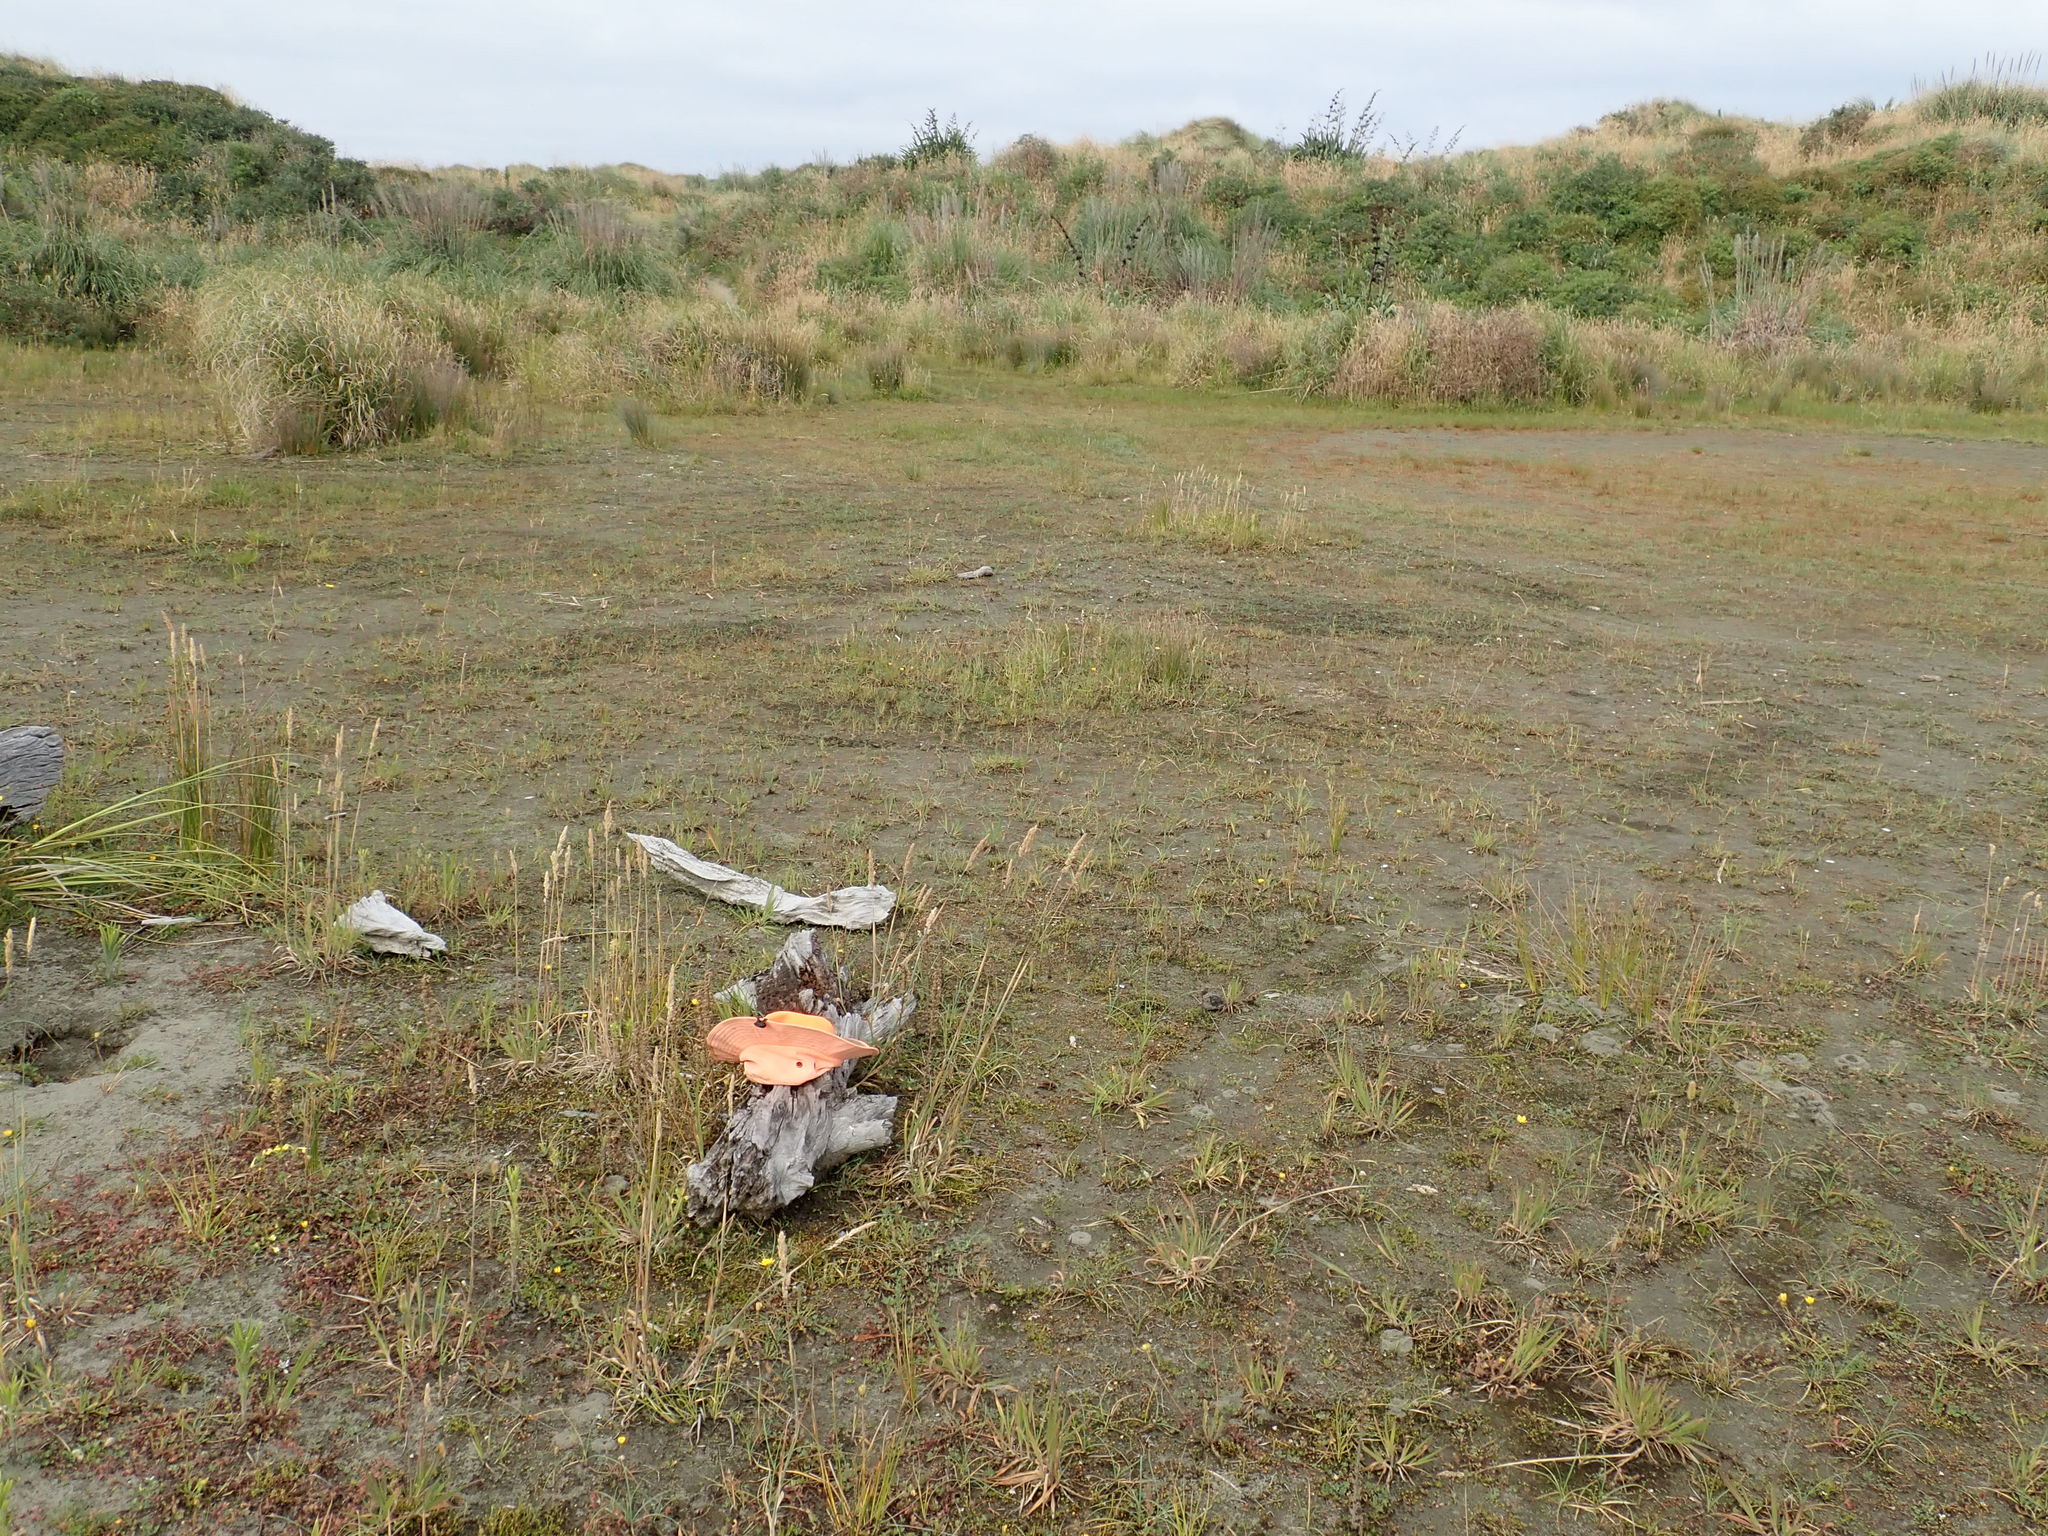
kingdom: Plantae
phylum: Tracheophyta
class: Magnoliopsida
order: Asterales
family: Goodeniaceae
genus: Goodenia
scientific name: Goodenia heenanii
